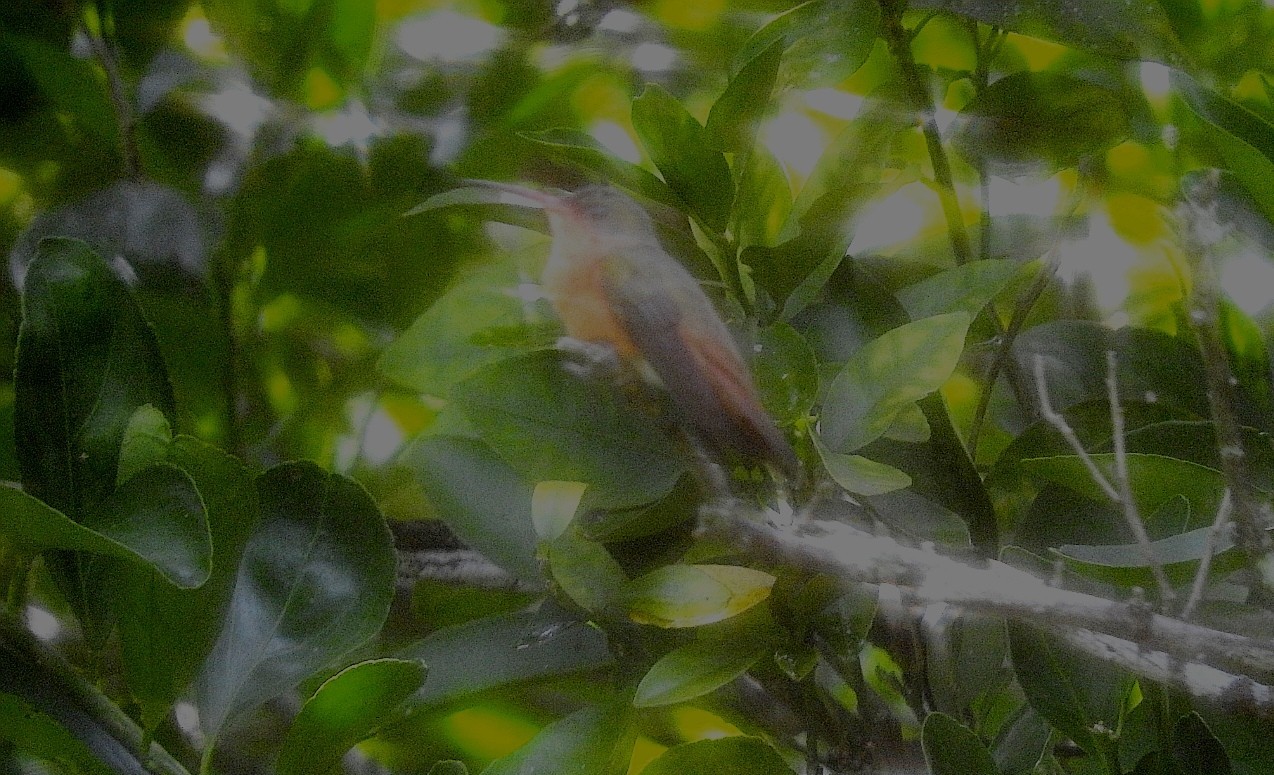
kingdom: Animalia
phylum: Chordata
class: Aves
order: Apodiformes
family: Trochilidae
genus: Amazilia
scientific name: Amazilia rutila
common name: Cinnamon hummingbird
